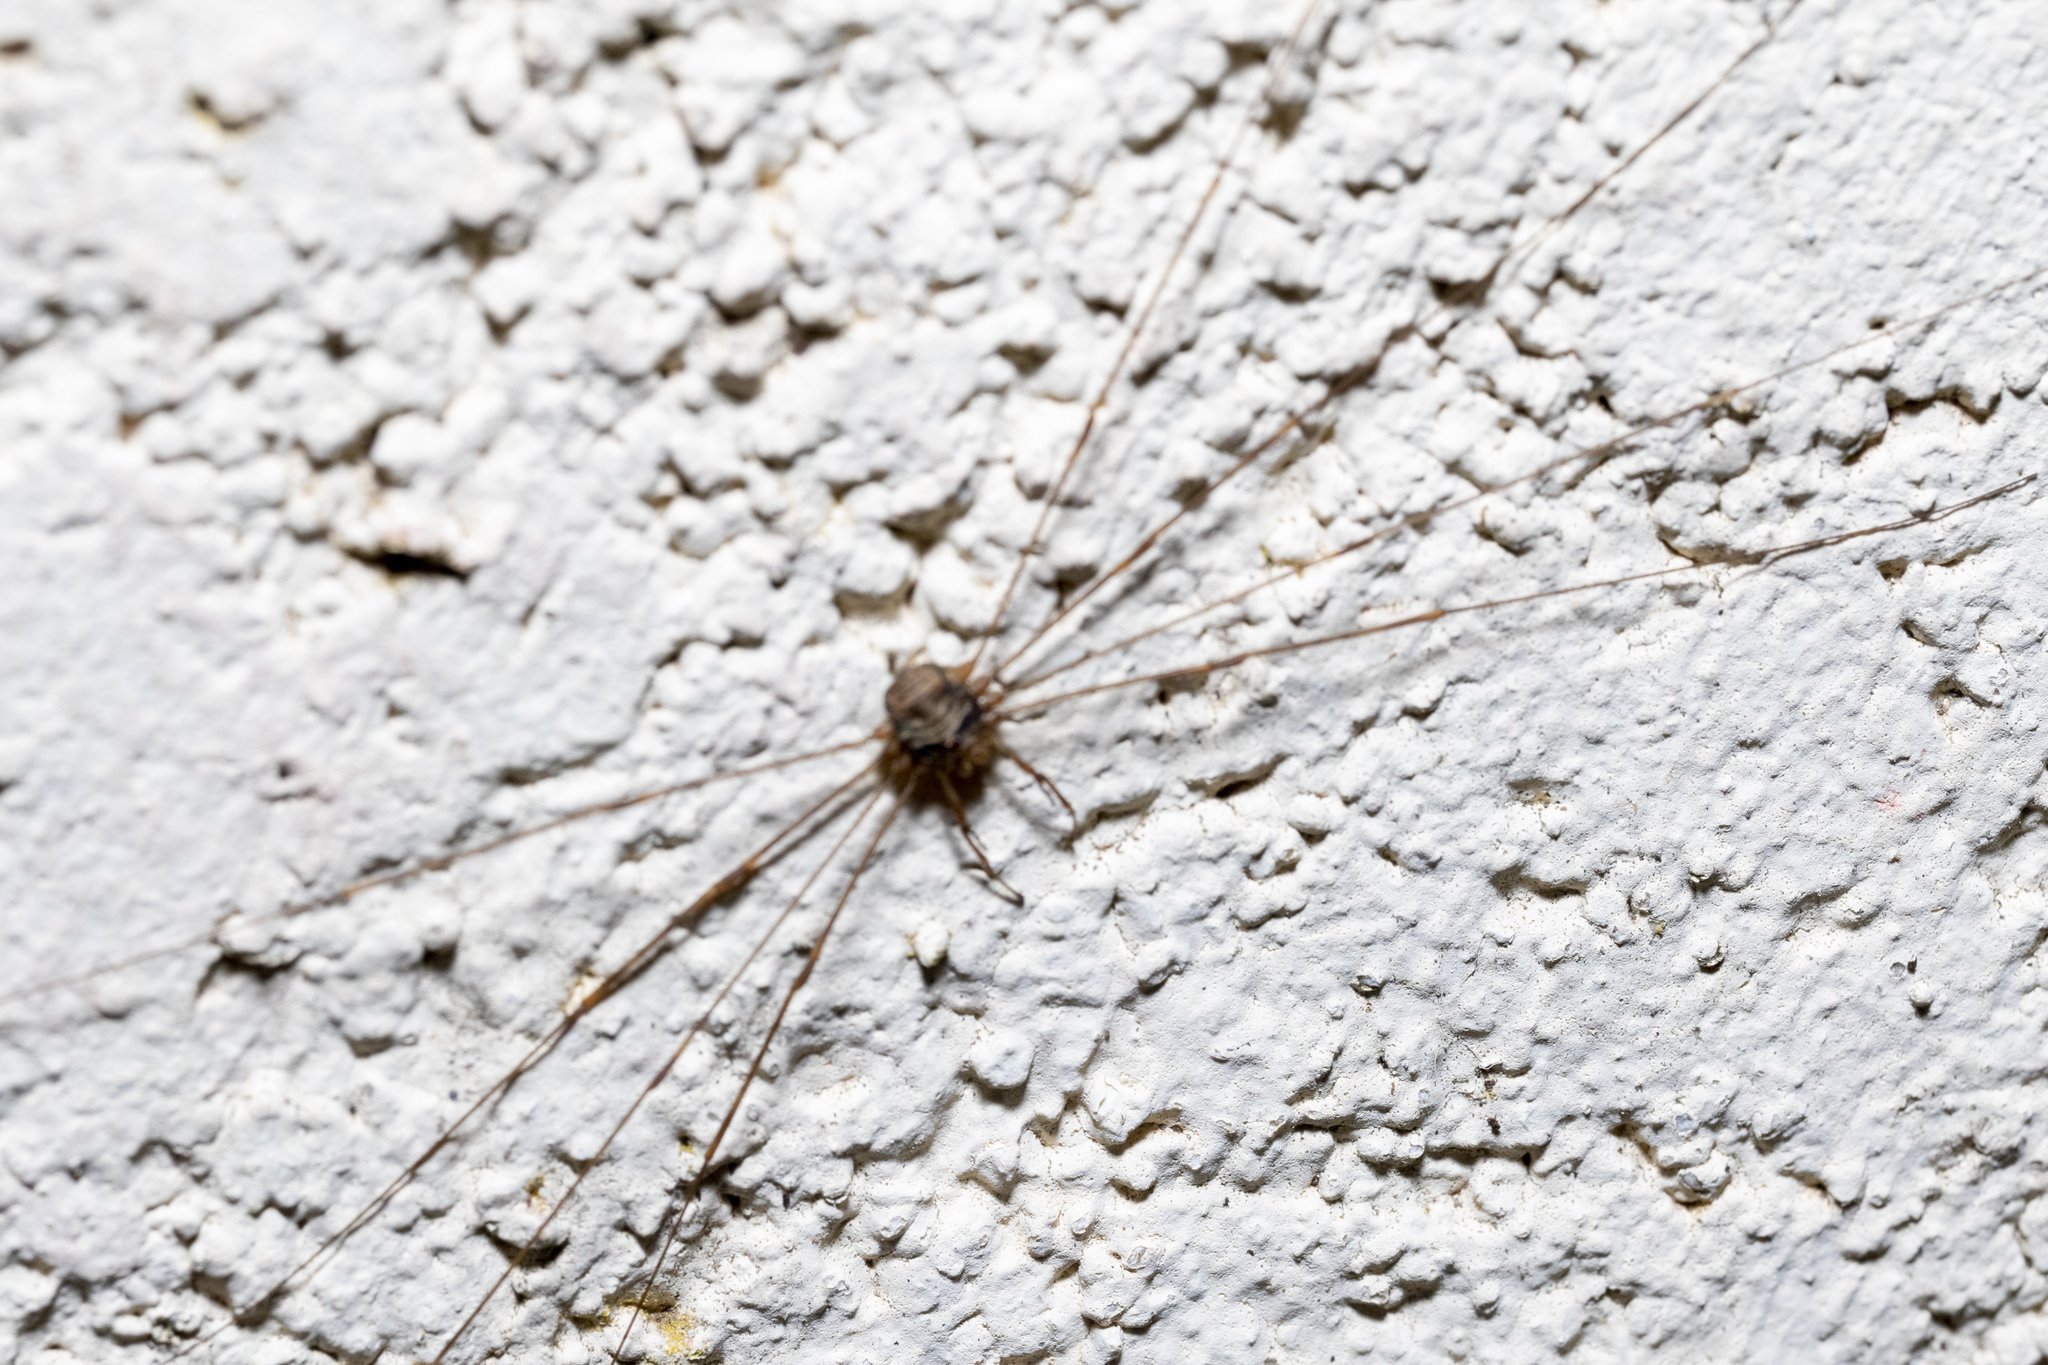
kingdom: Animalia
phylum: Arthropoda
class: Arachnida
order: Opiliones
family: Phalangiidae
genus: Dicranopalpus
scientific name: Dicranopalpus ramosus
